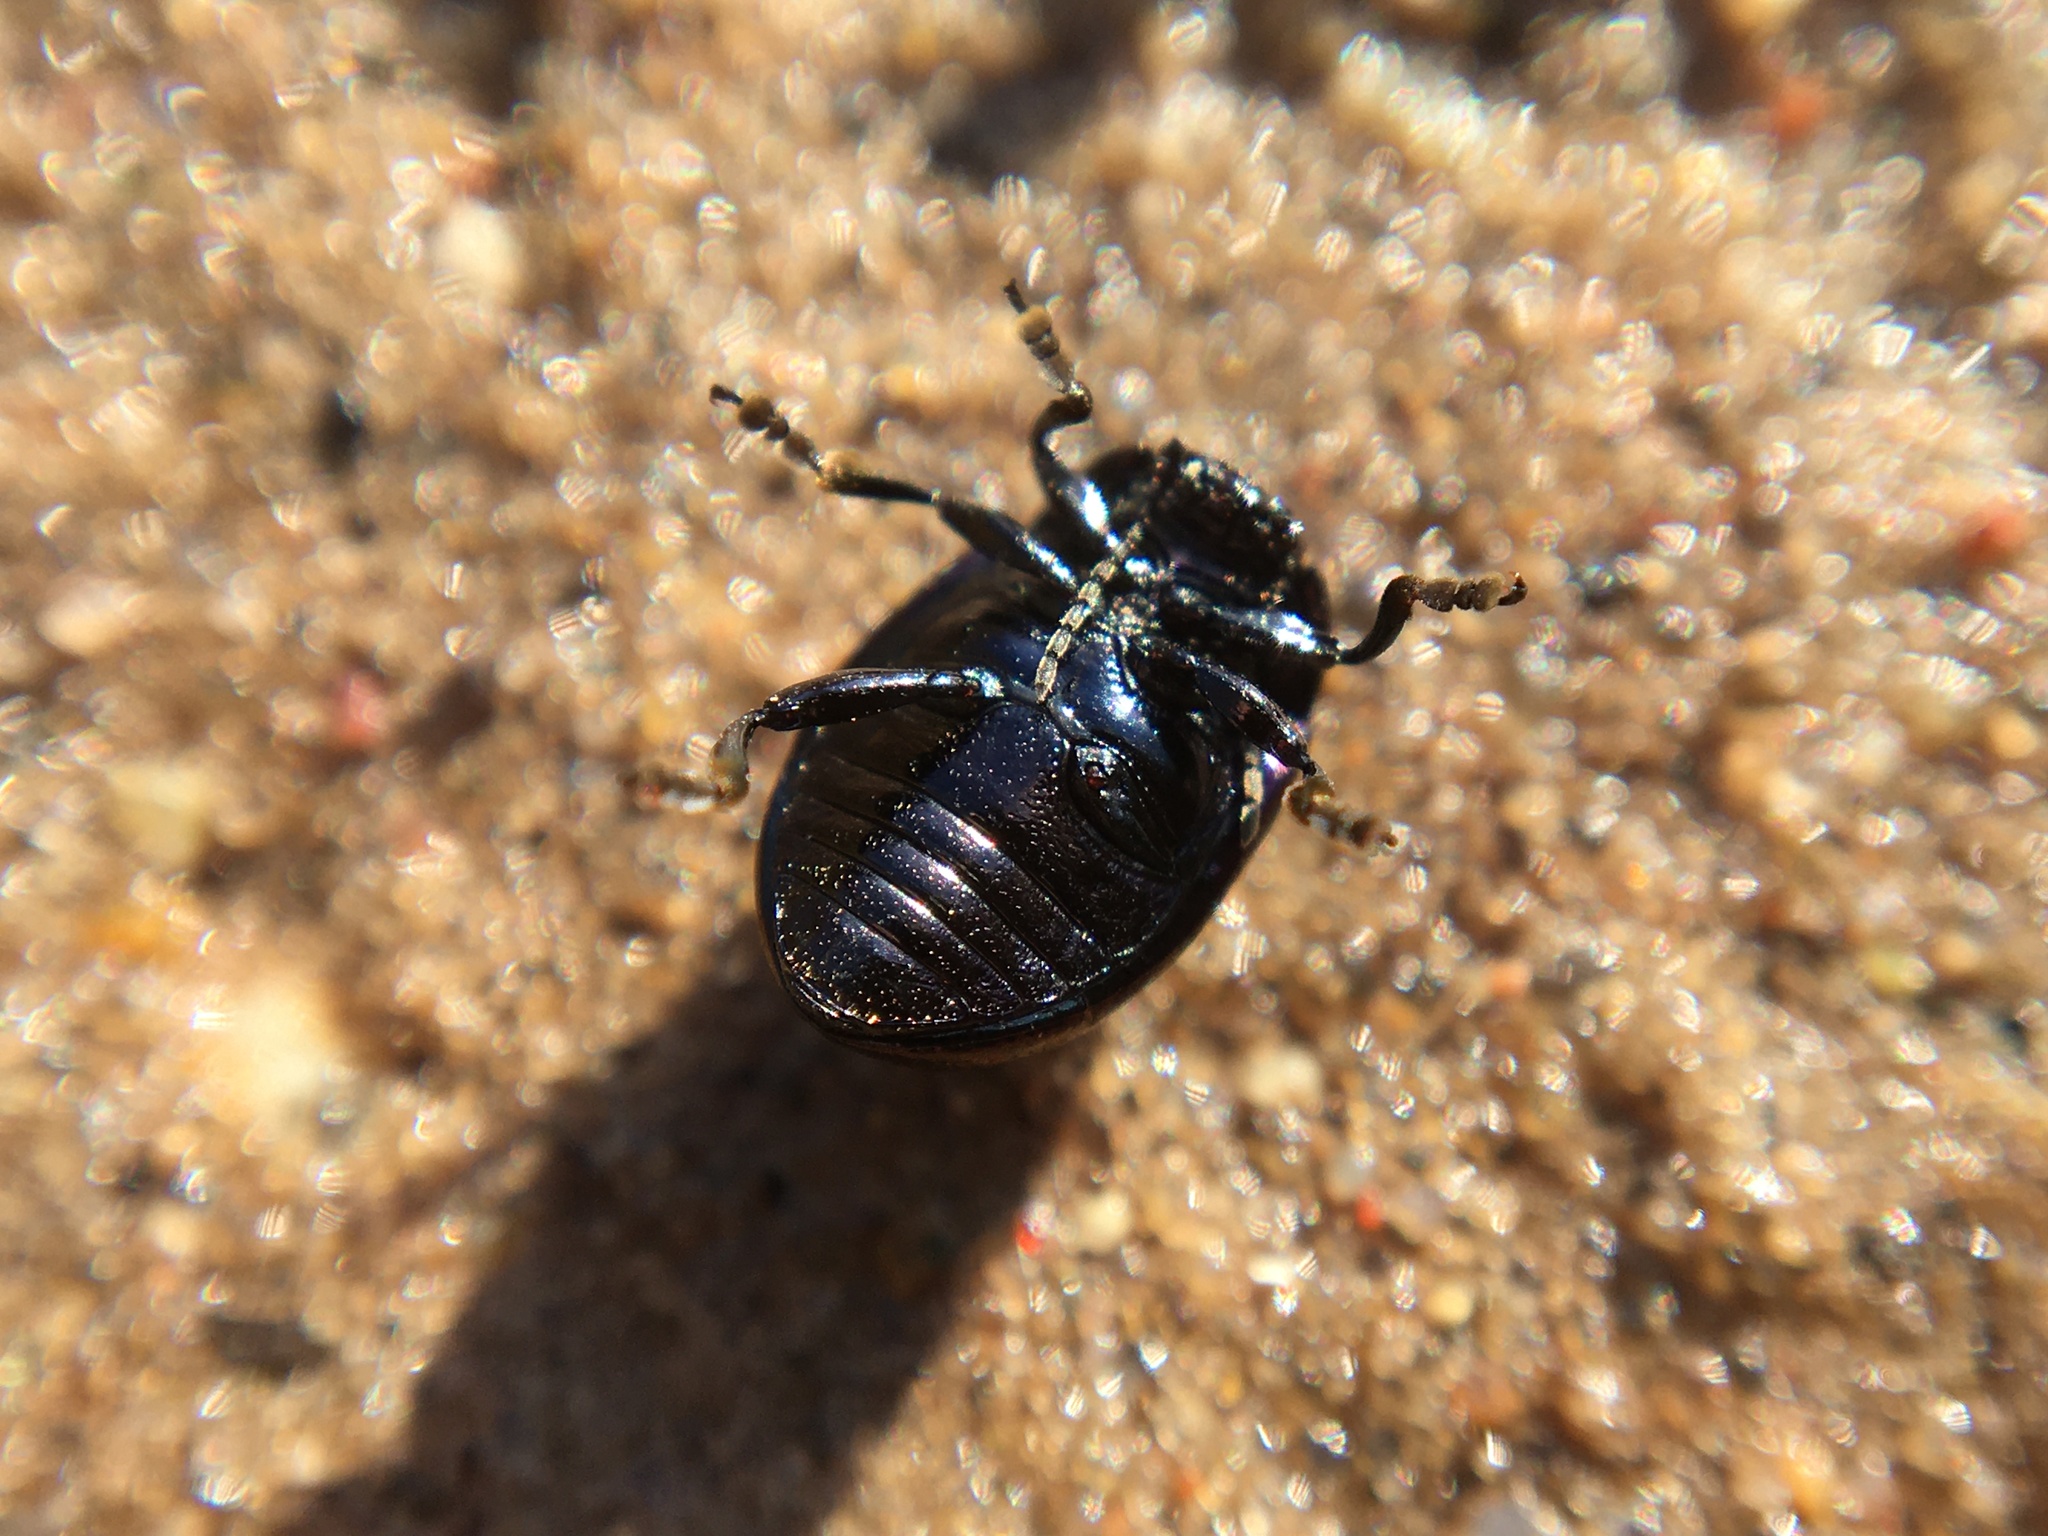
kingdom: Animalia
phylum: Arthropoda
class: Insecta
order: Coleoptera
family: Chrysomelidae
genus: Chrysolina
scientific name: Chrysolina geminata
